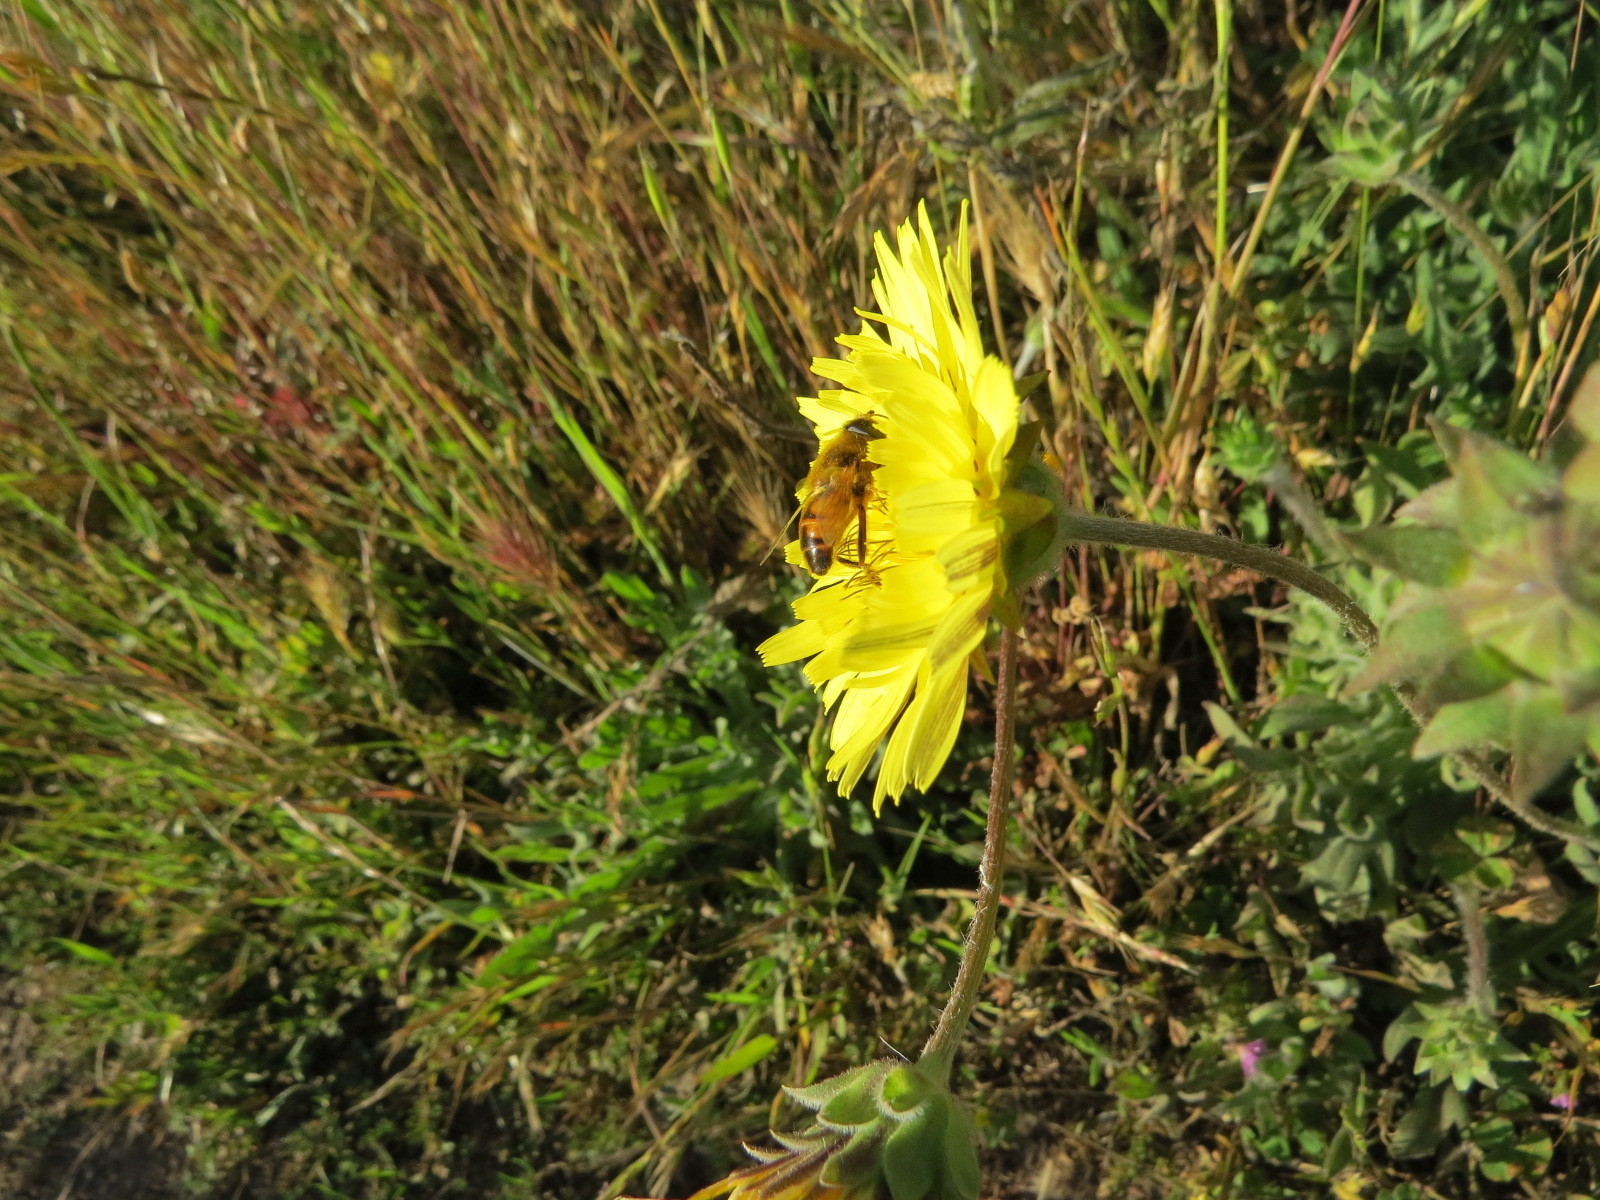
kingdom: Animalia
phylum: Arthropoda
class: Insecta
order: Diptera
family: Syrphidae
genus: Eristalis
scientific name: Eristalis tenax
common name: Drone fly
